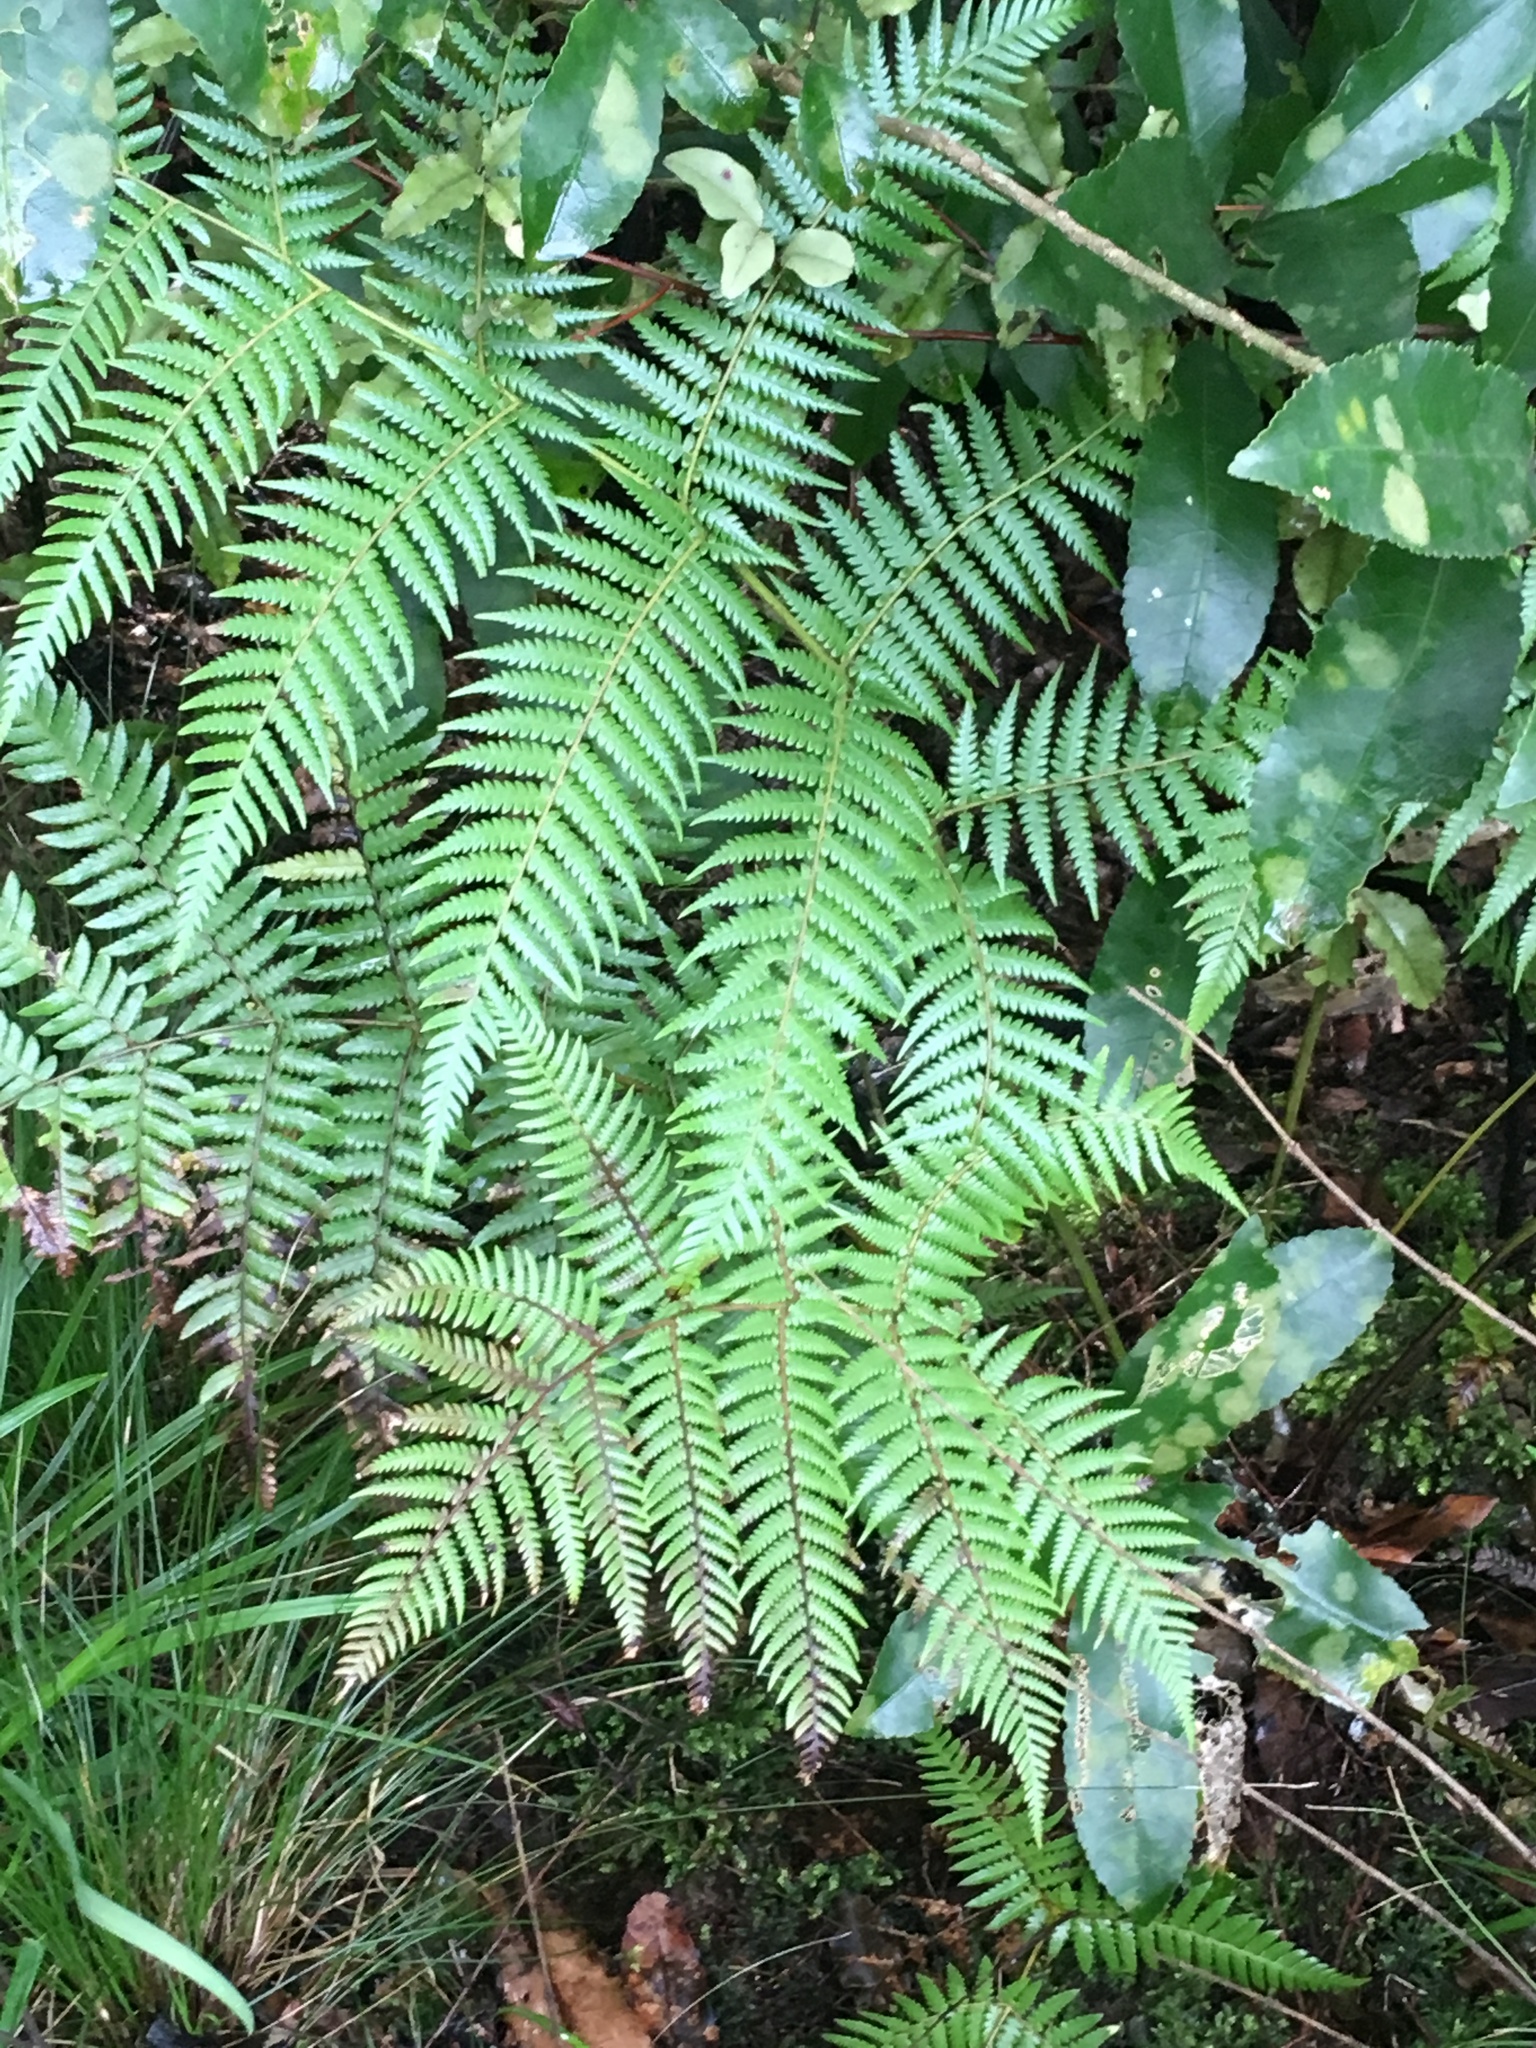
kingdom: Plantae
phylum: Tracheophyta
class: Polypodiopsida
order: Cyatheales
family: Cyatheaceae
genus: Alsophila
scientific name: Alsophila dealbata
